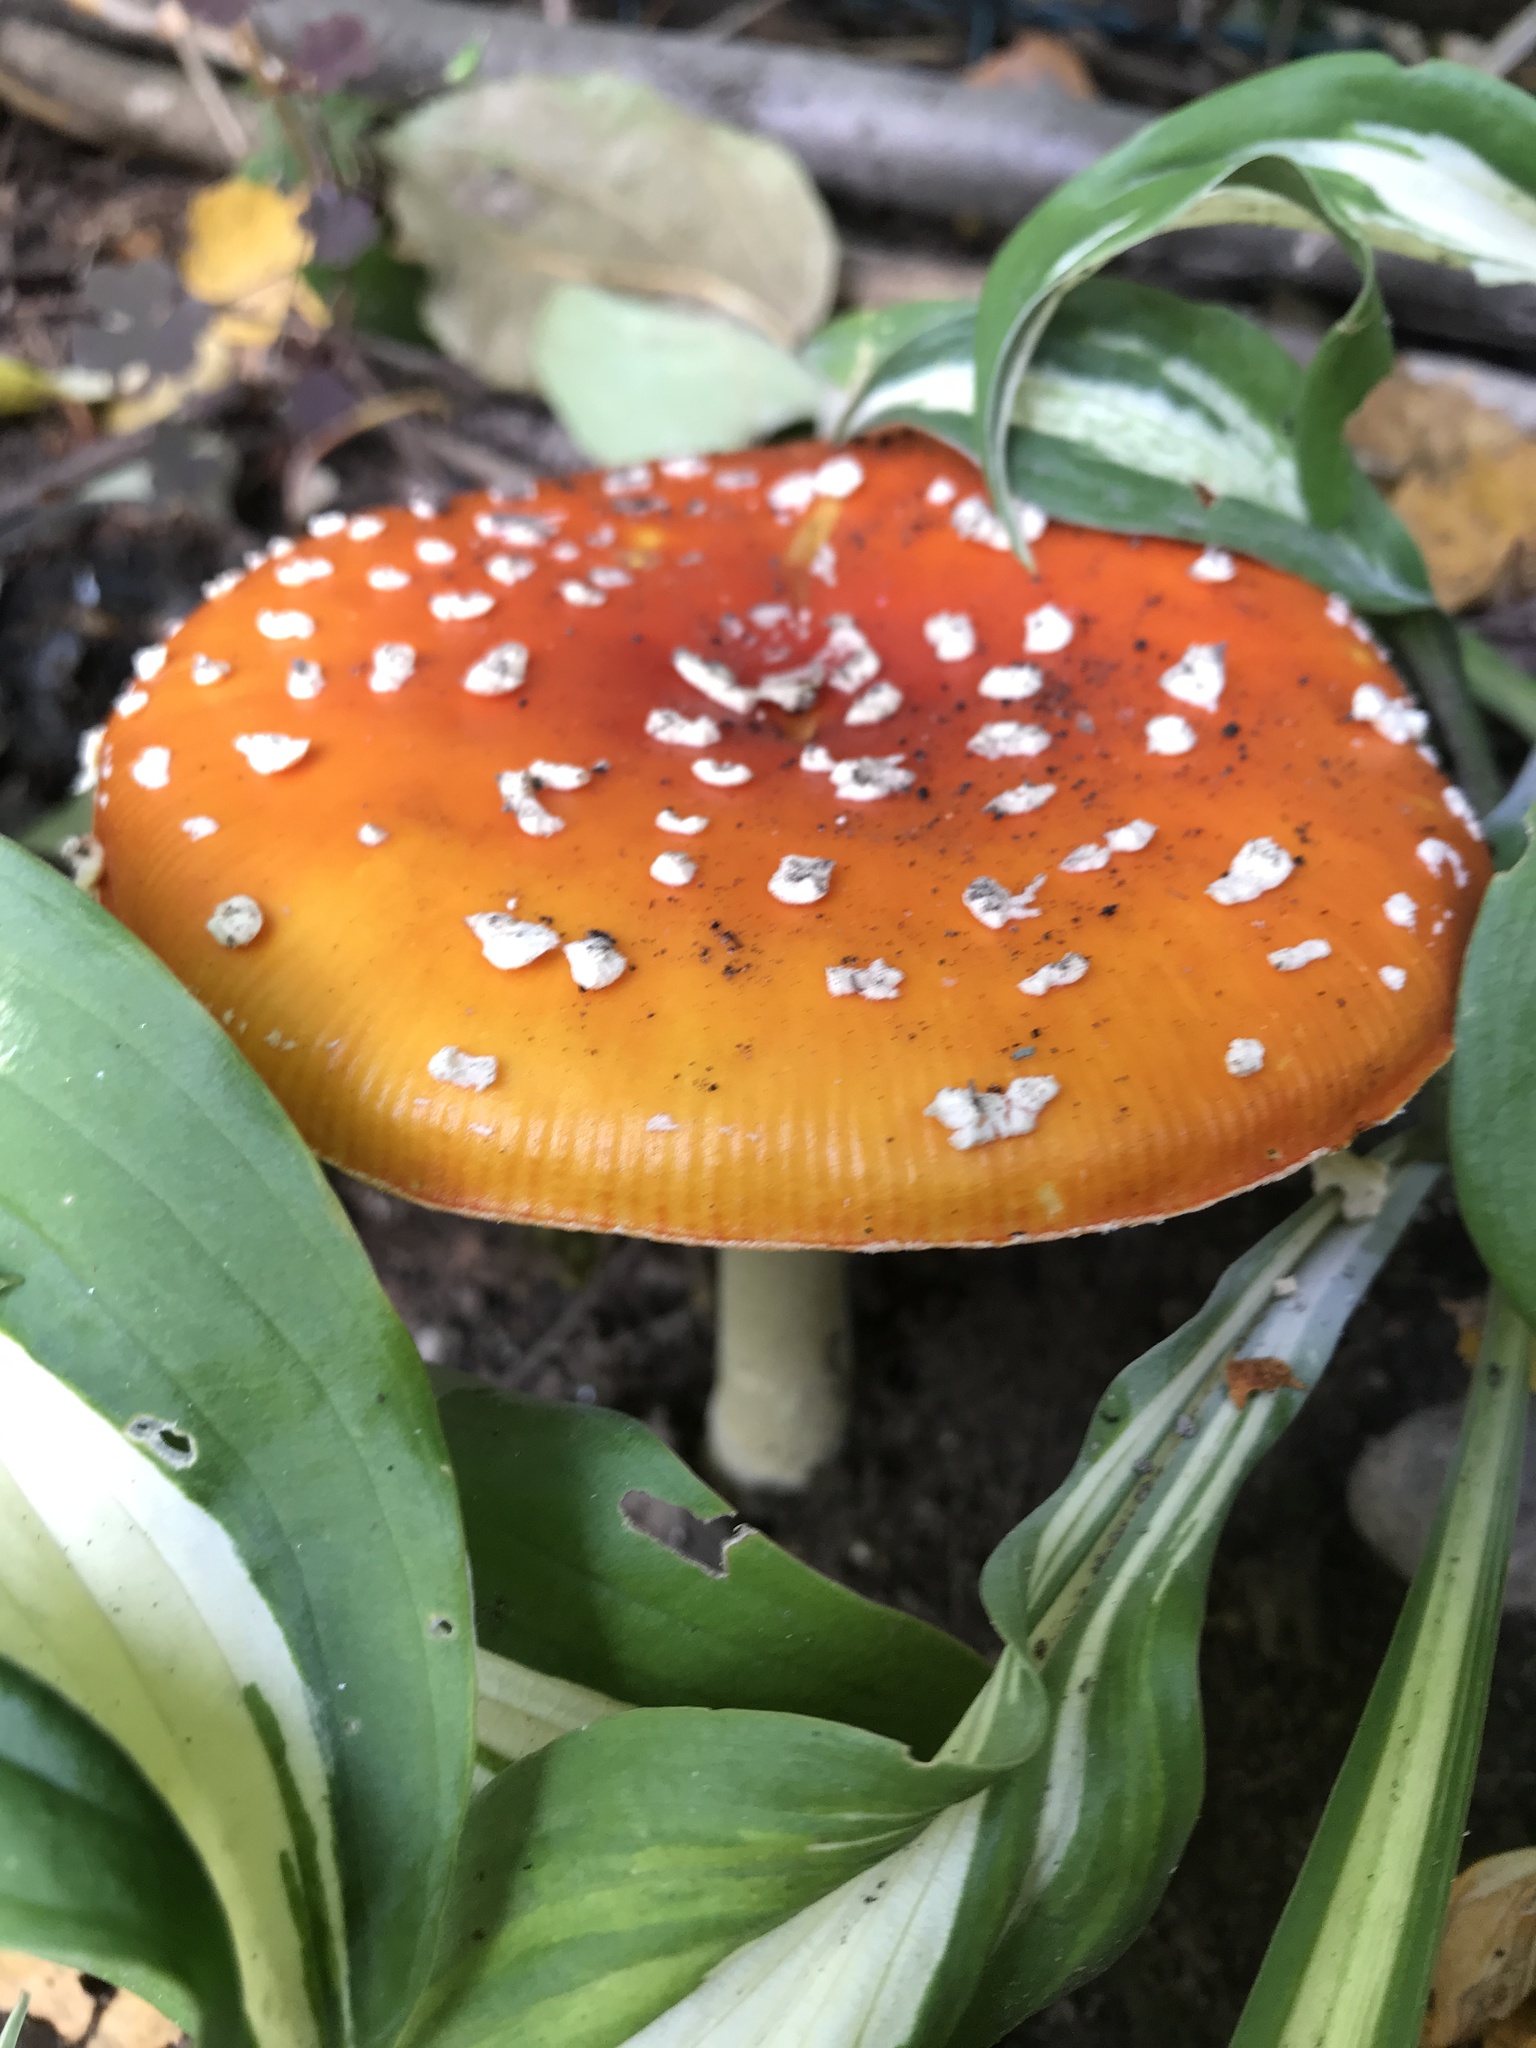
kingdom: Fungi
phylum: Basidiomycota
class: Agaricomycetes
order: Agaricales
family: Amanitaceae
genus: Amanita
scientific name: Amanita muscaria
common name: Fly agaric
